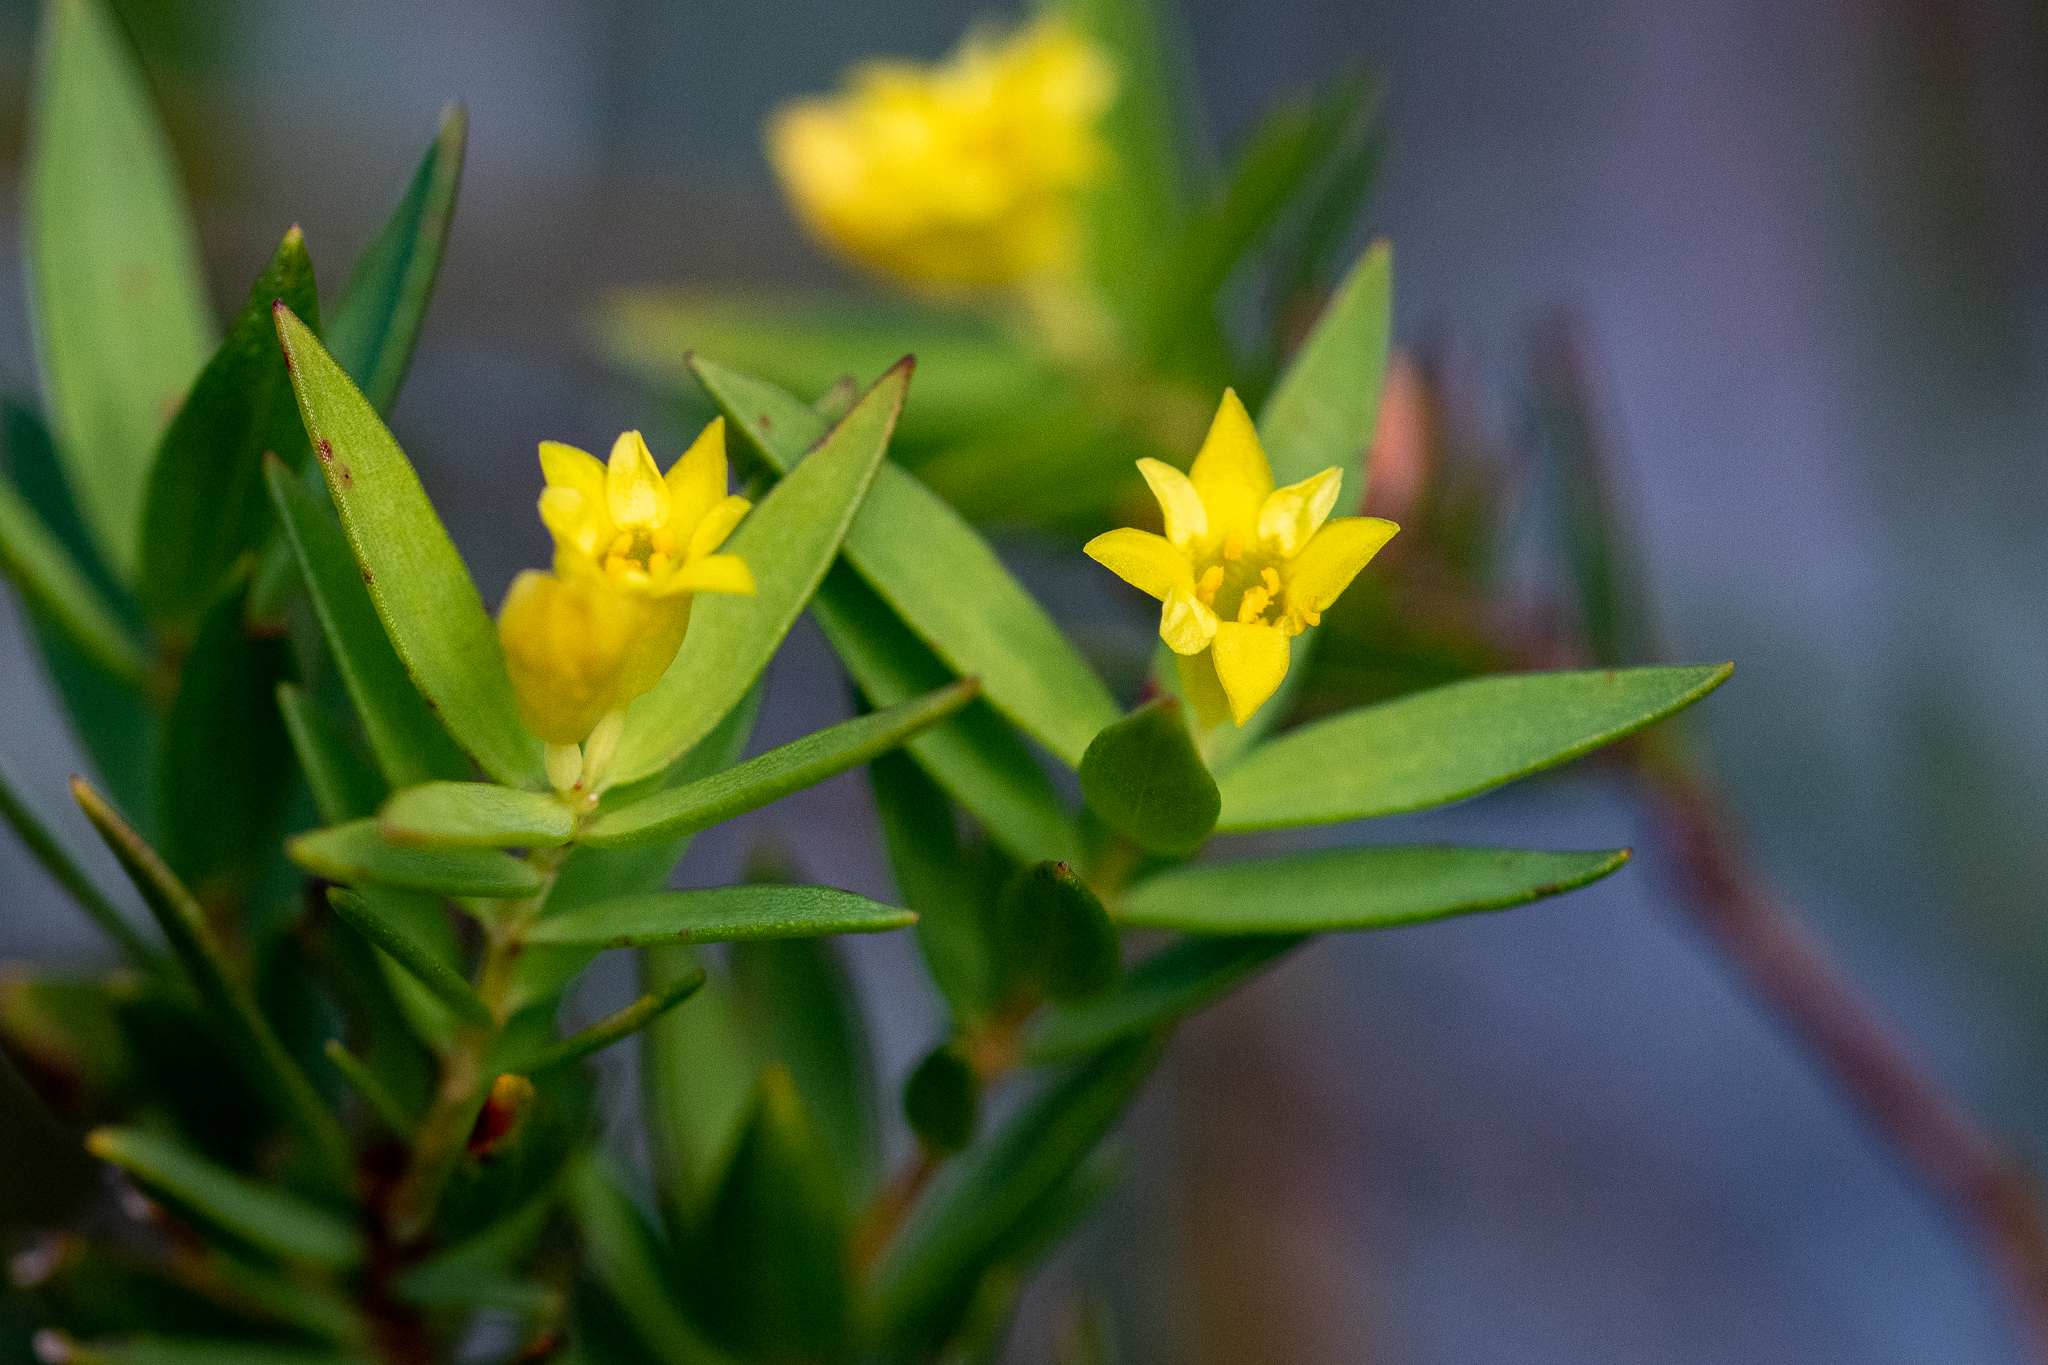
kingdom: Plantae
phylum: Tracheophyta
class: Magnoliopsida
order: Malvales
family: Thymelaeaceae
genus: Gnidia
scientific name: Gnidia juniperifolia
